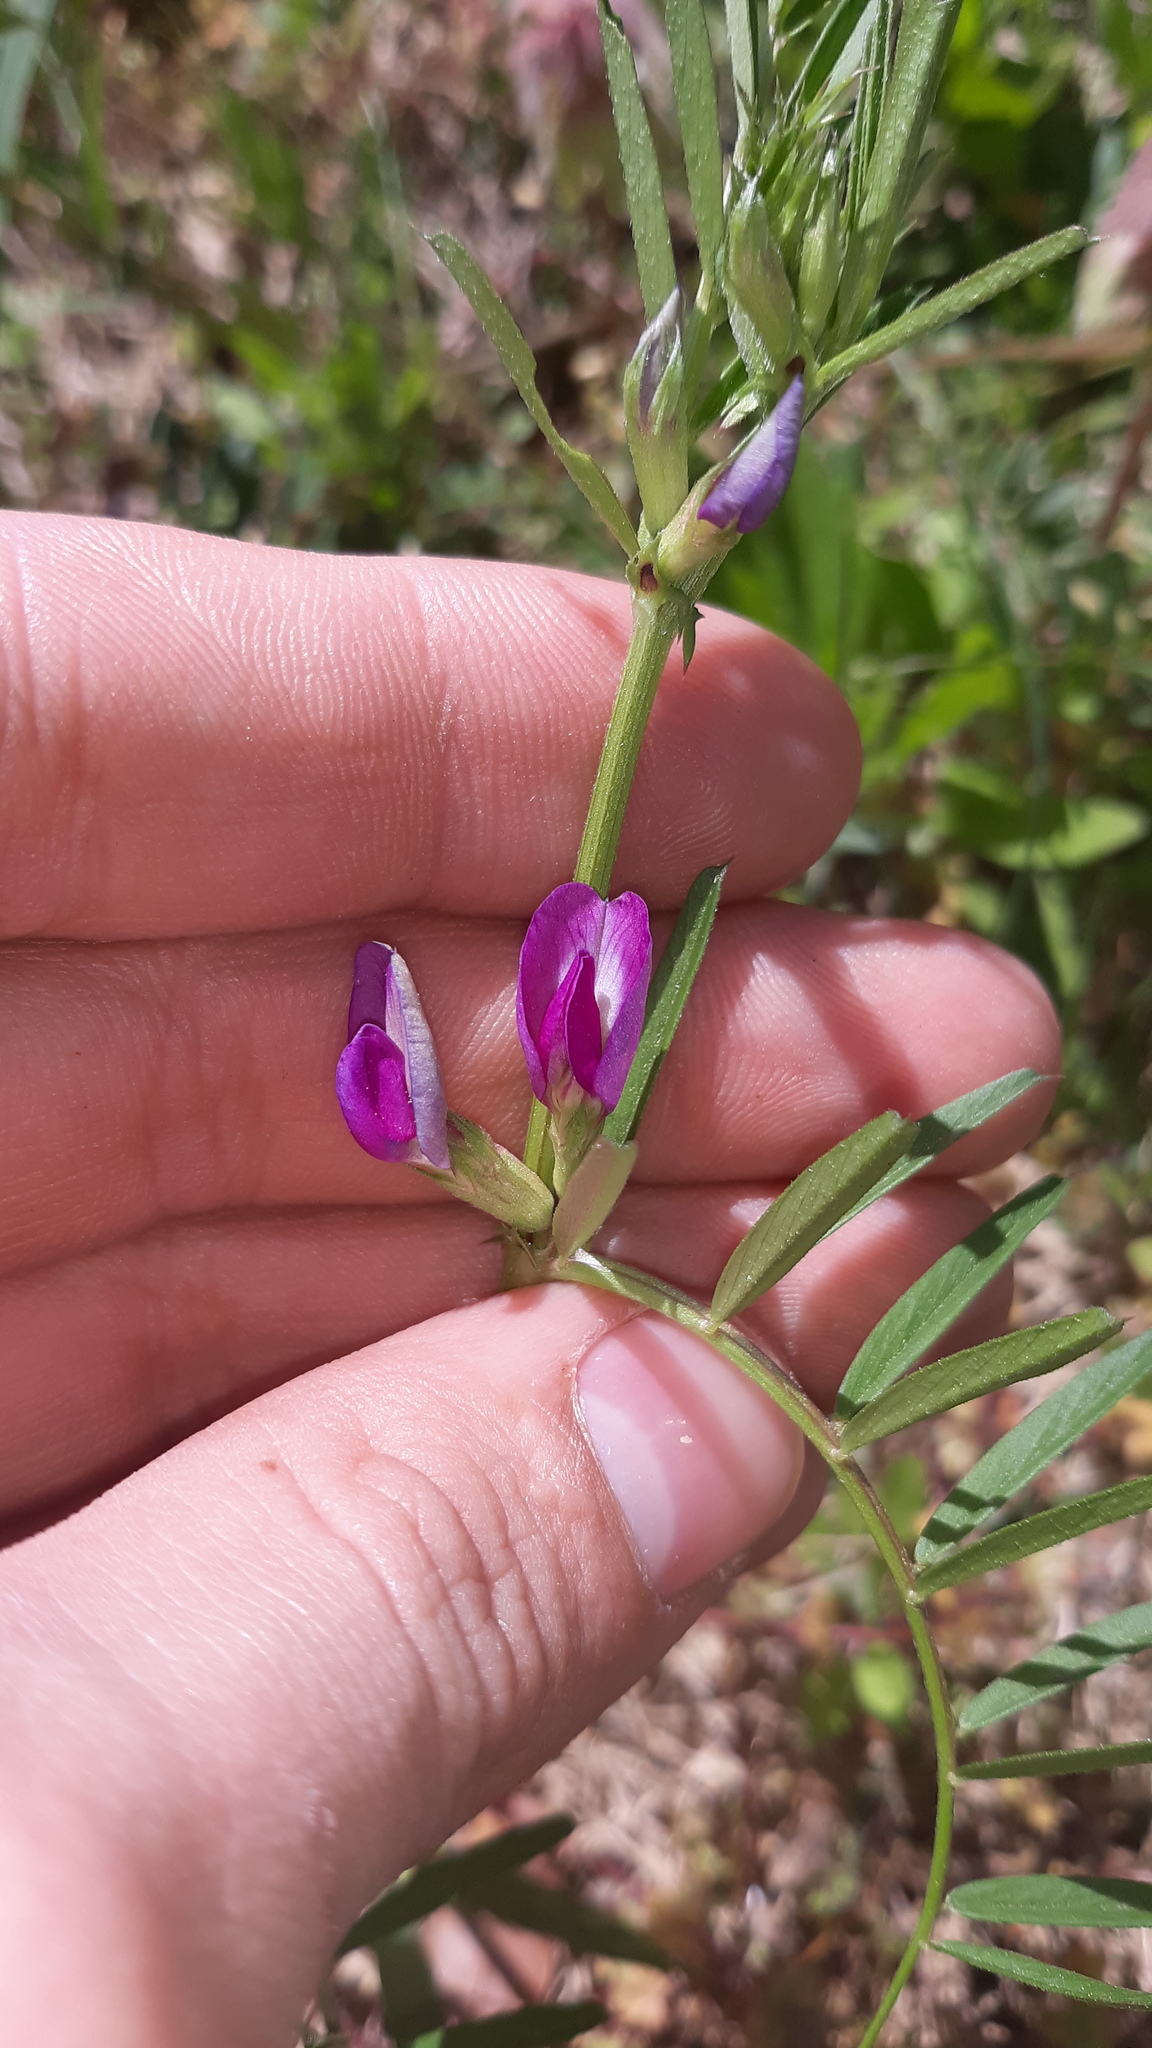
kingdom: Plantae
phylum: Tracheophyta
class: Magnoliopsida
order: Fabales
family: Fabaceae
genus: Vicia
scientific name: Vicia sativa
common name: Garden vetch
